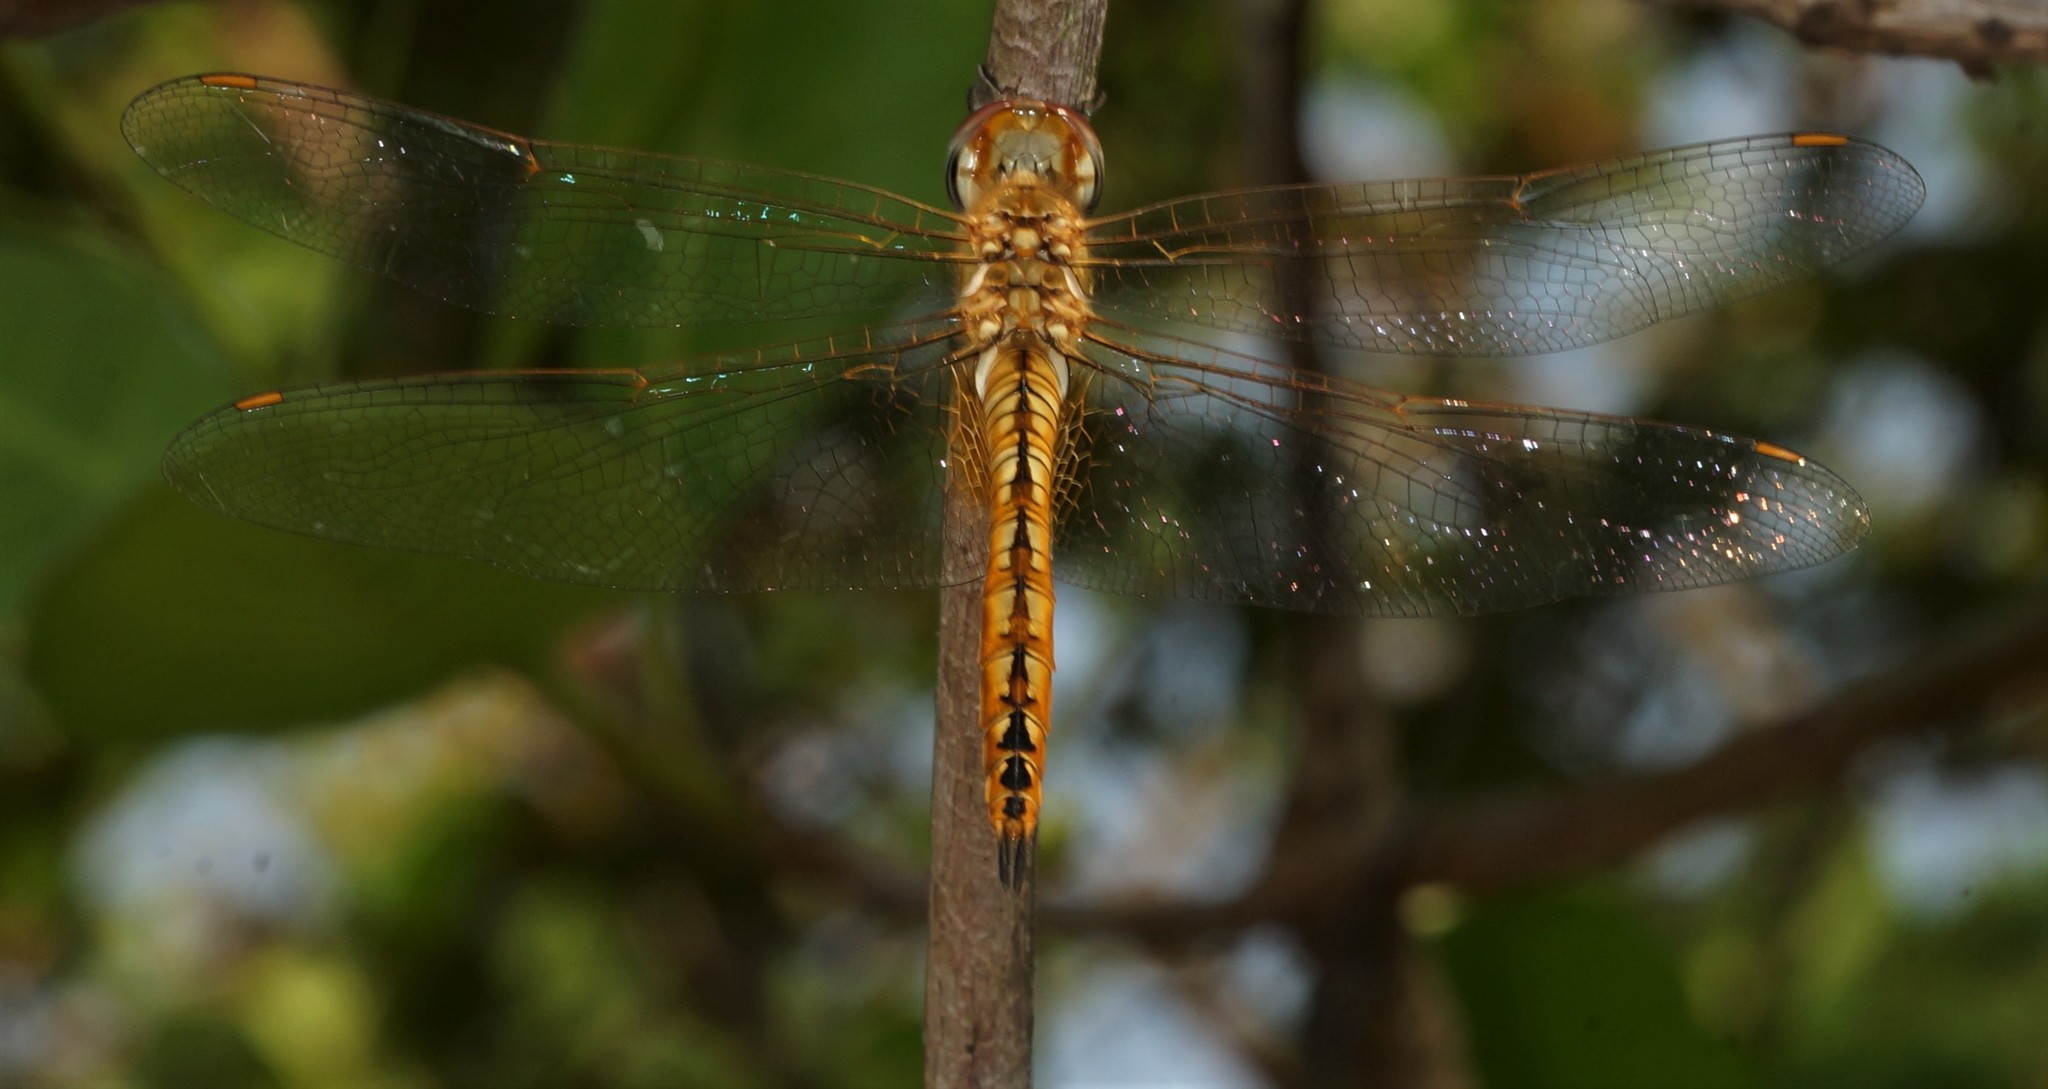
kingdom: Animalia
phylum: Arthropoda
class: Insecta
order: Odonata
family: Libellulidae
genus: Pantala
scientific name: Pantala flavescens
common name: Wandering glider
